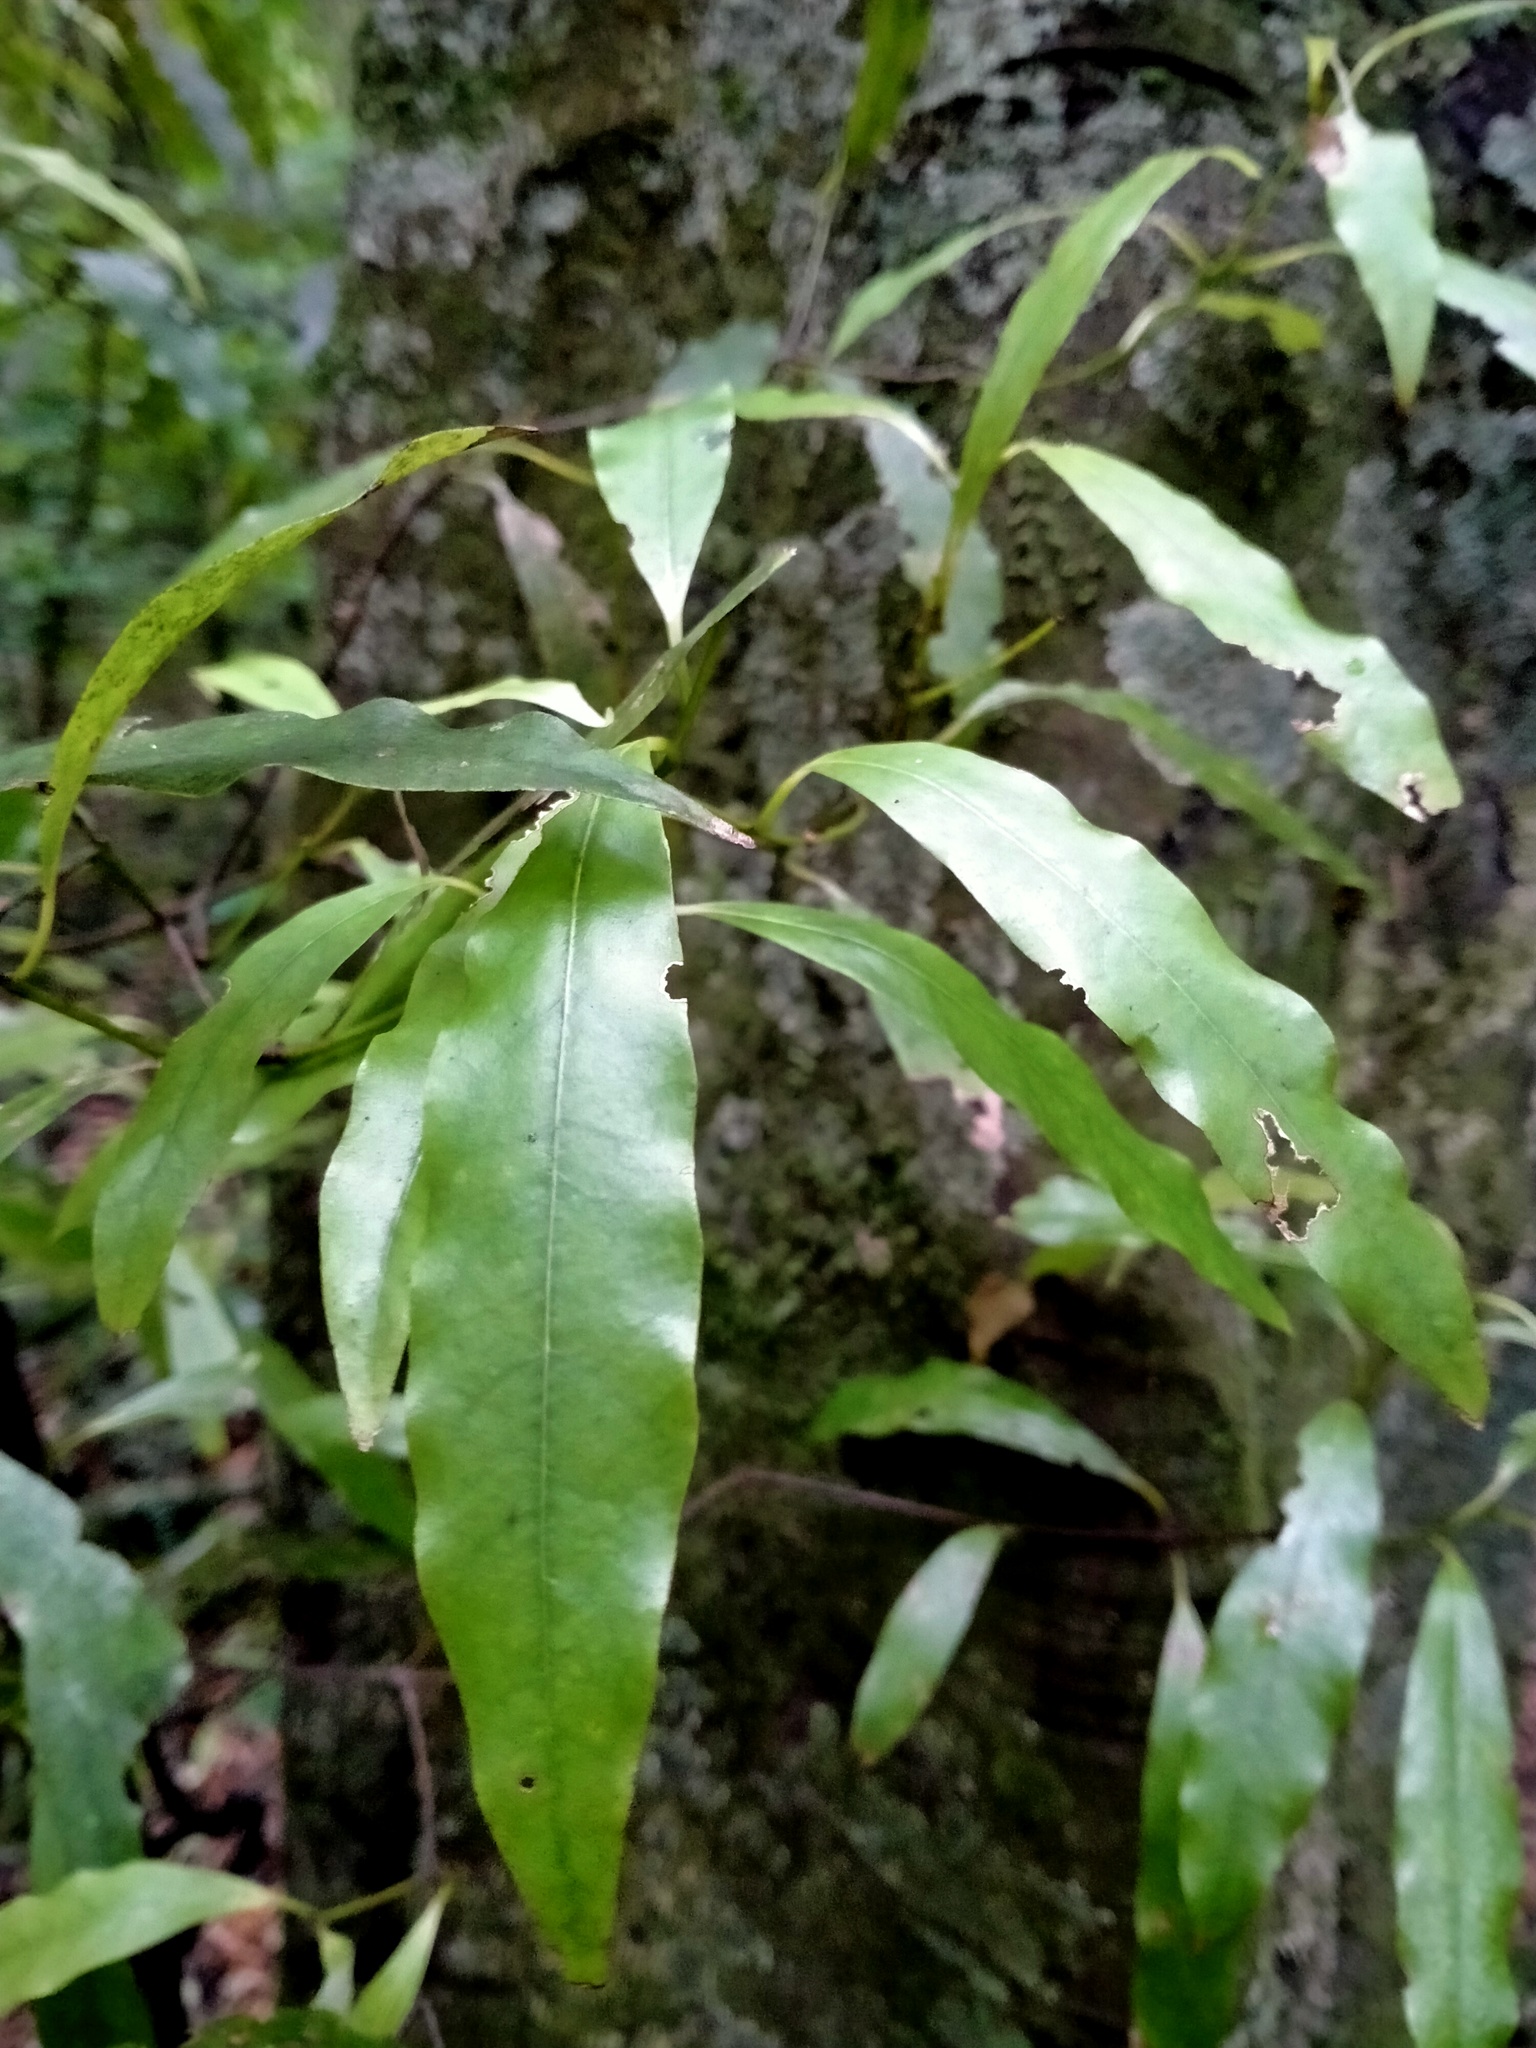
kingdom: Plantae
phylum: Tracheophyta
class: Magnoliopsida
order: Laurales
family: Lauraceae
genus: Beilschmiedia
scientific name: Beilschmiedia tawa
